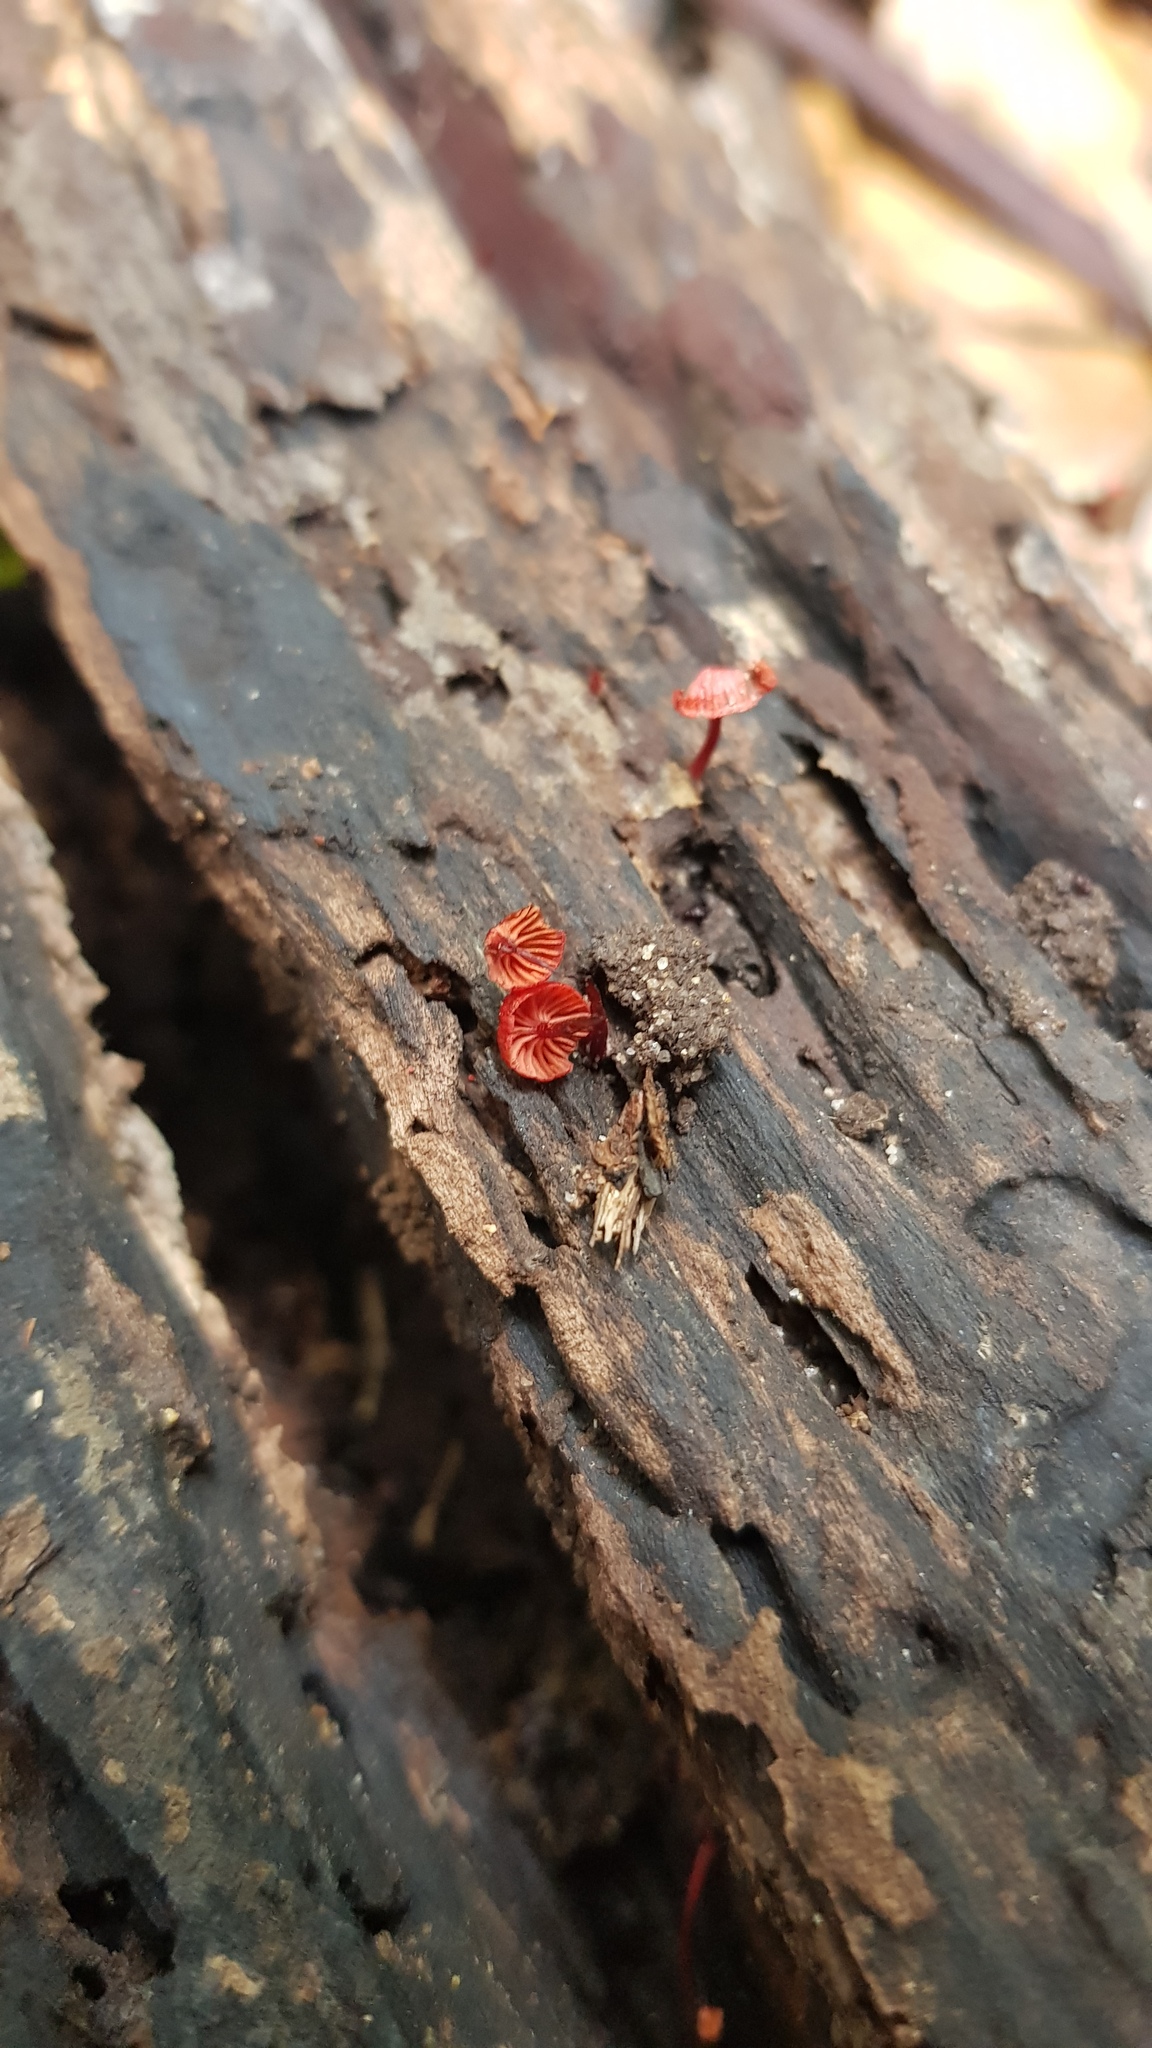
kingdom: Fungi
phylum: Basidiomycota
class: Agaricomycetes
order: Agaricales
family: Mycenaceae
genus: Cruentomycena
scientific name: Cruentomycena viscidocruenta
